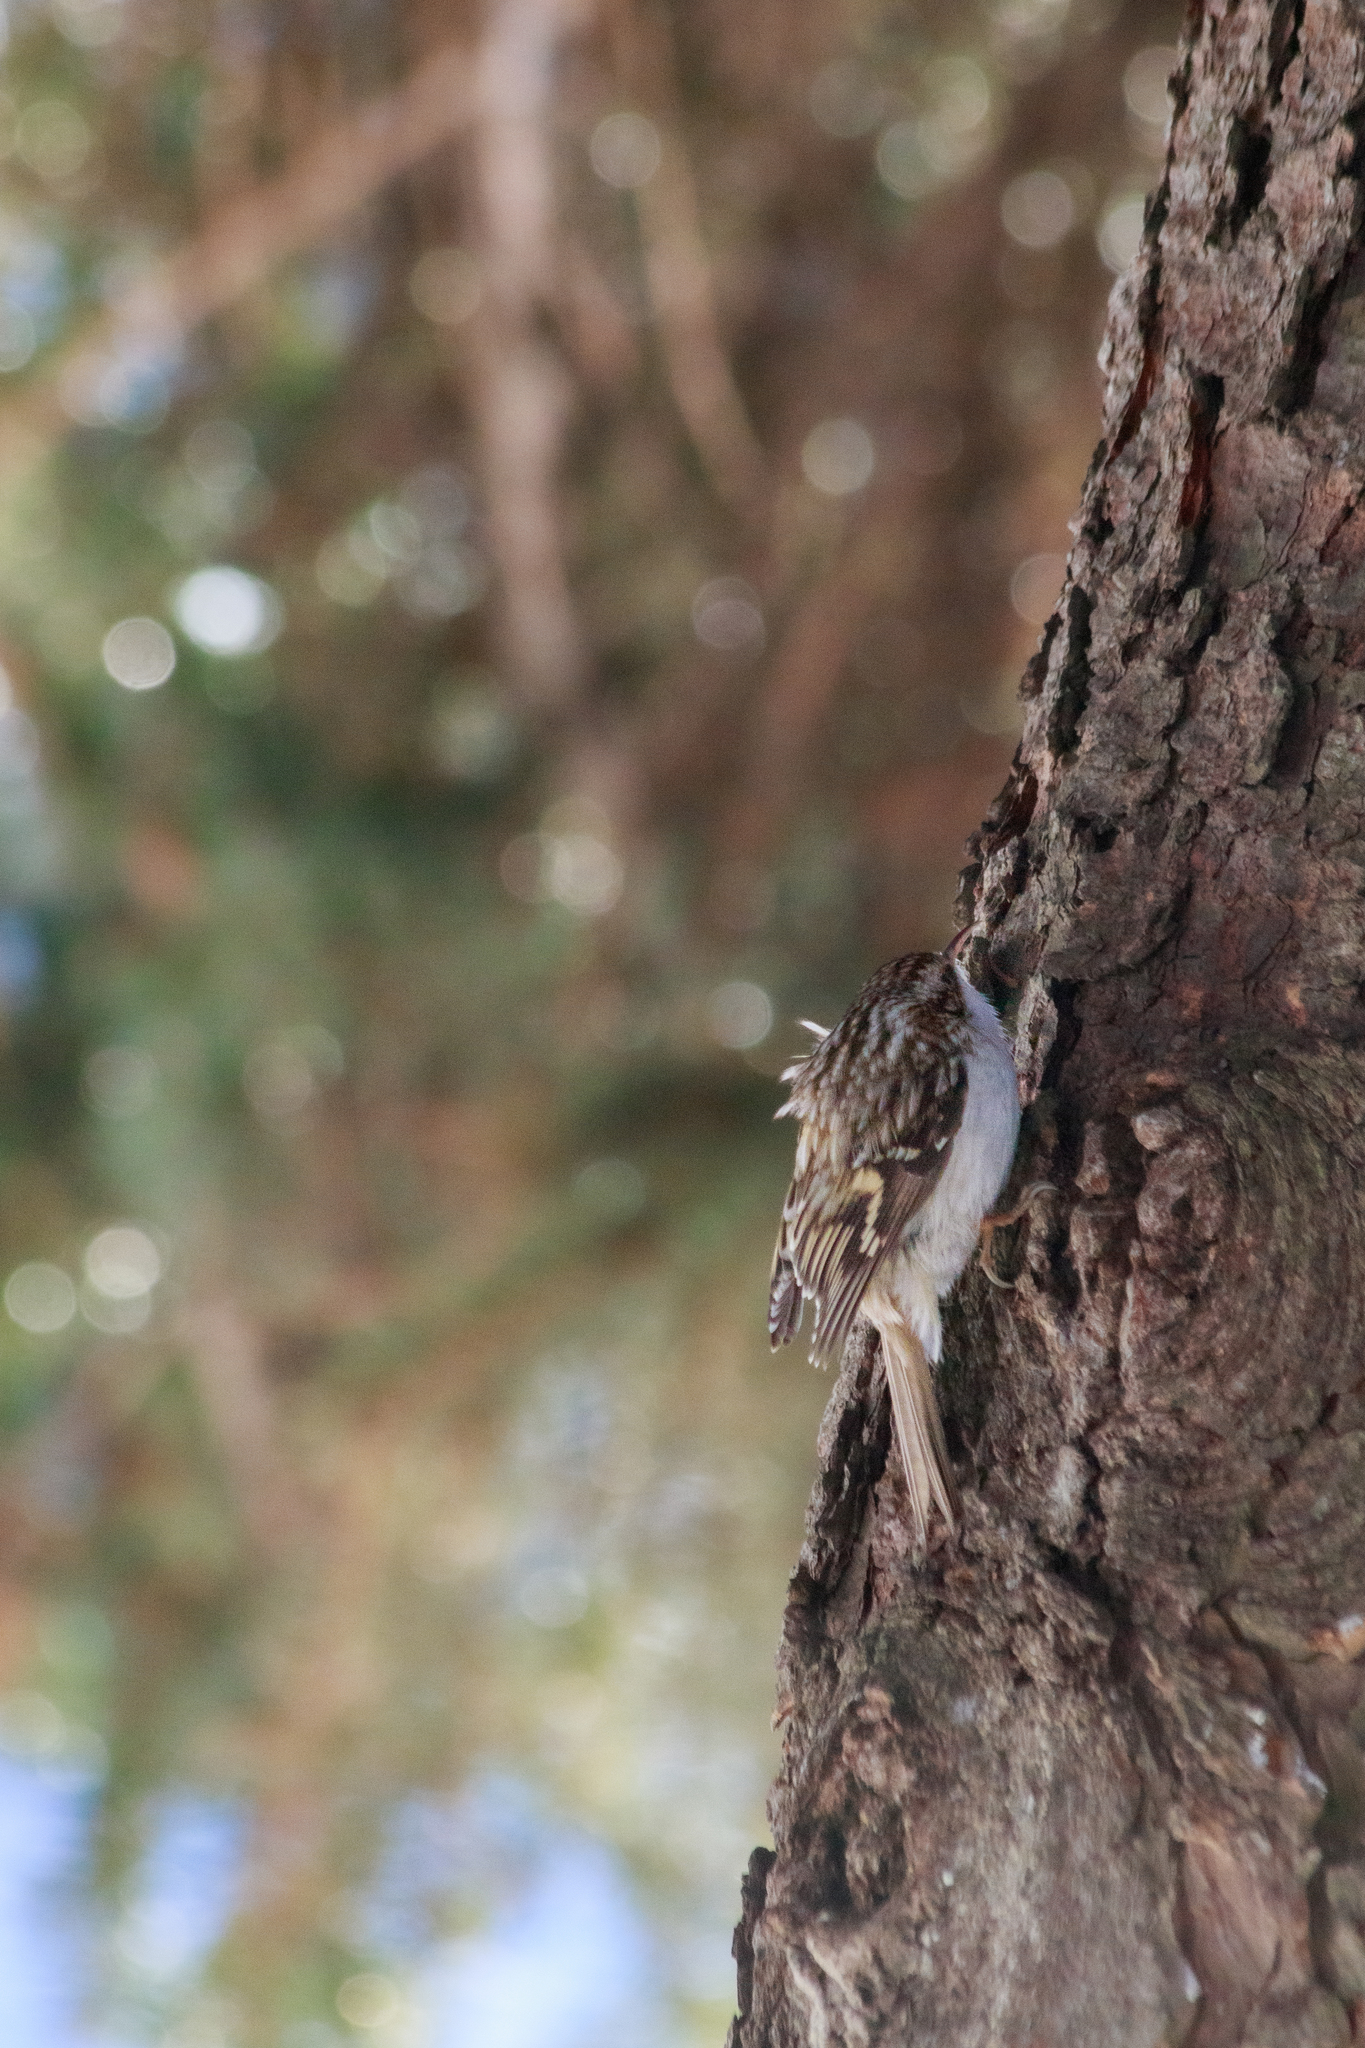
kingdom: Animalia
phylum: Chordata
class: Aves
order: Passeriformes
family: Certhiidae
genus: Certhia
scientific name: Certhia familiaris
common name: Eurasian treecreeper
